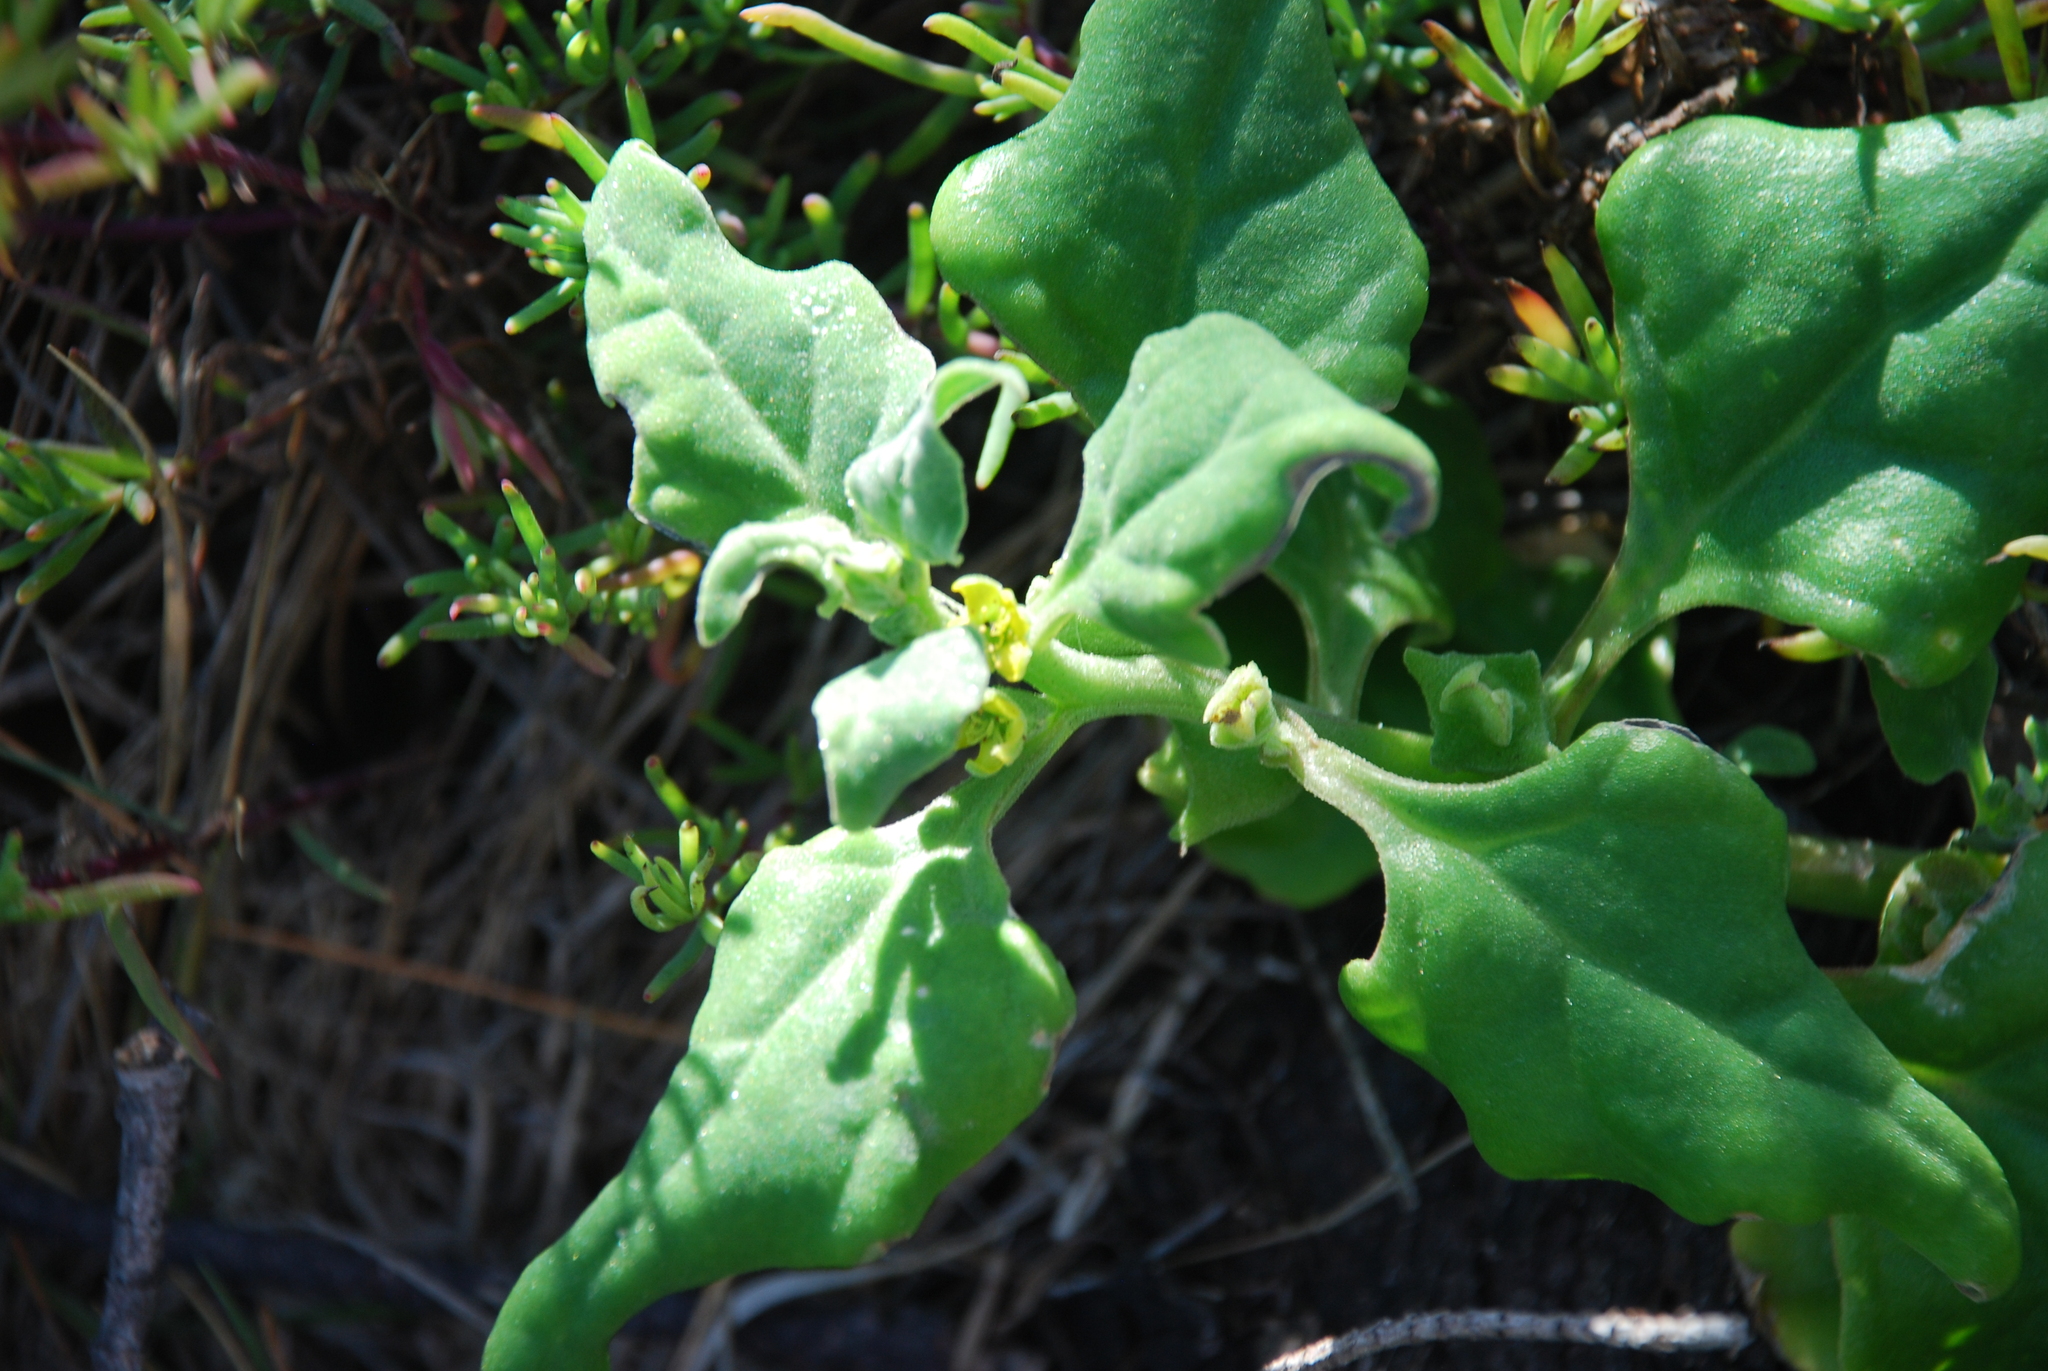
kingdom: Plantae
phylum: Tracheophyta
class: Magnoliopsida
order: Caryophyllales
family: Aizoaceae
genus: Tetragonia
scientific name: Tetragonia tetragonoides
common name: New zealand-spinach
